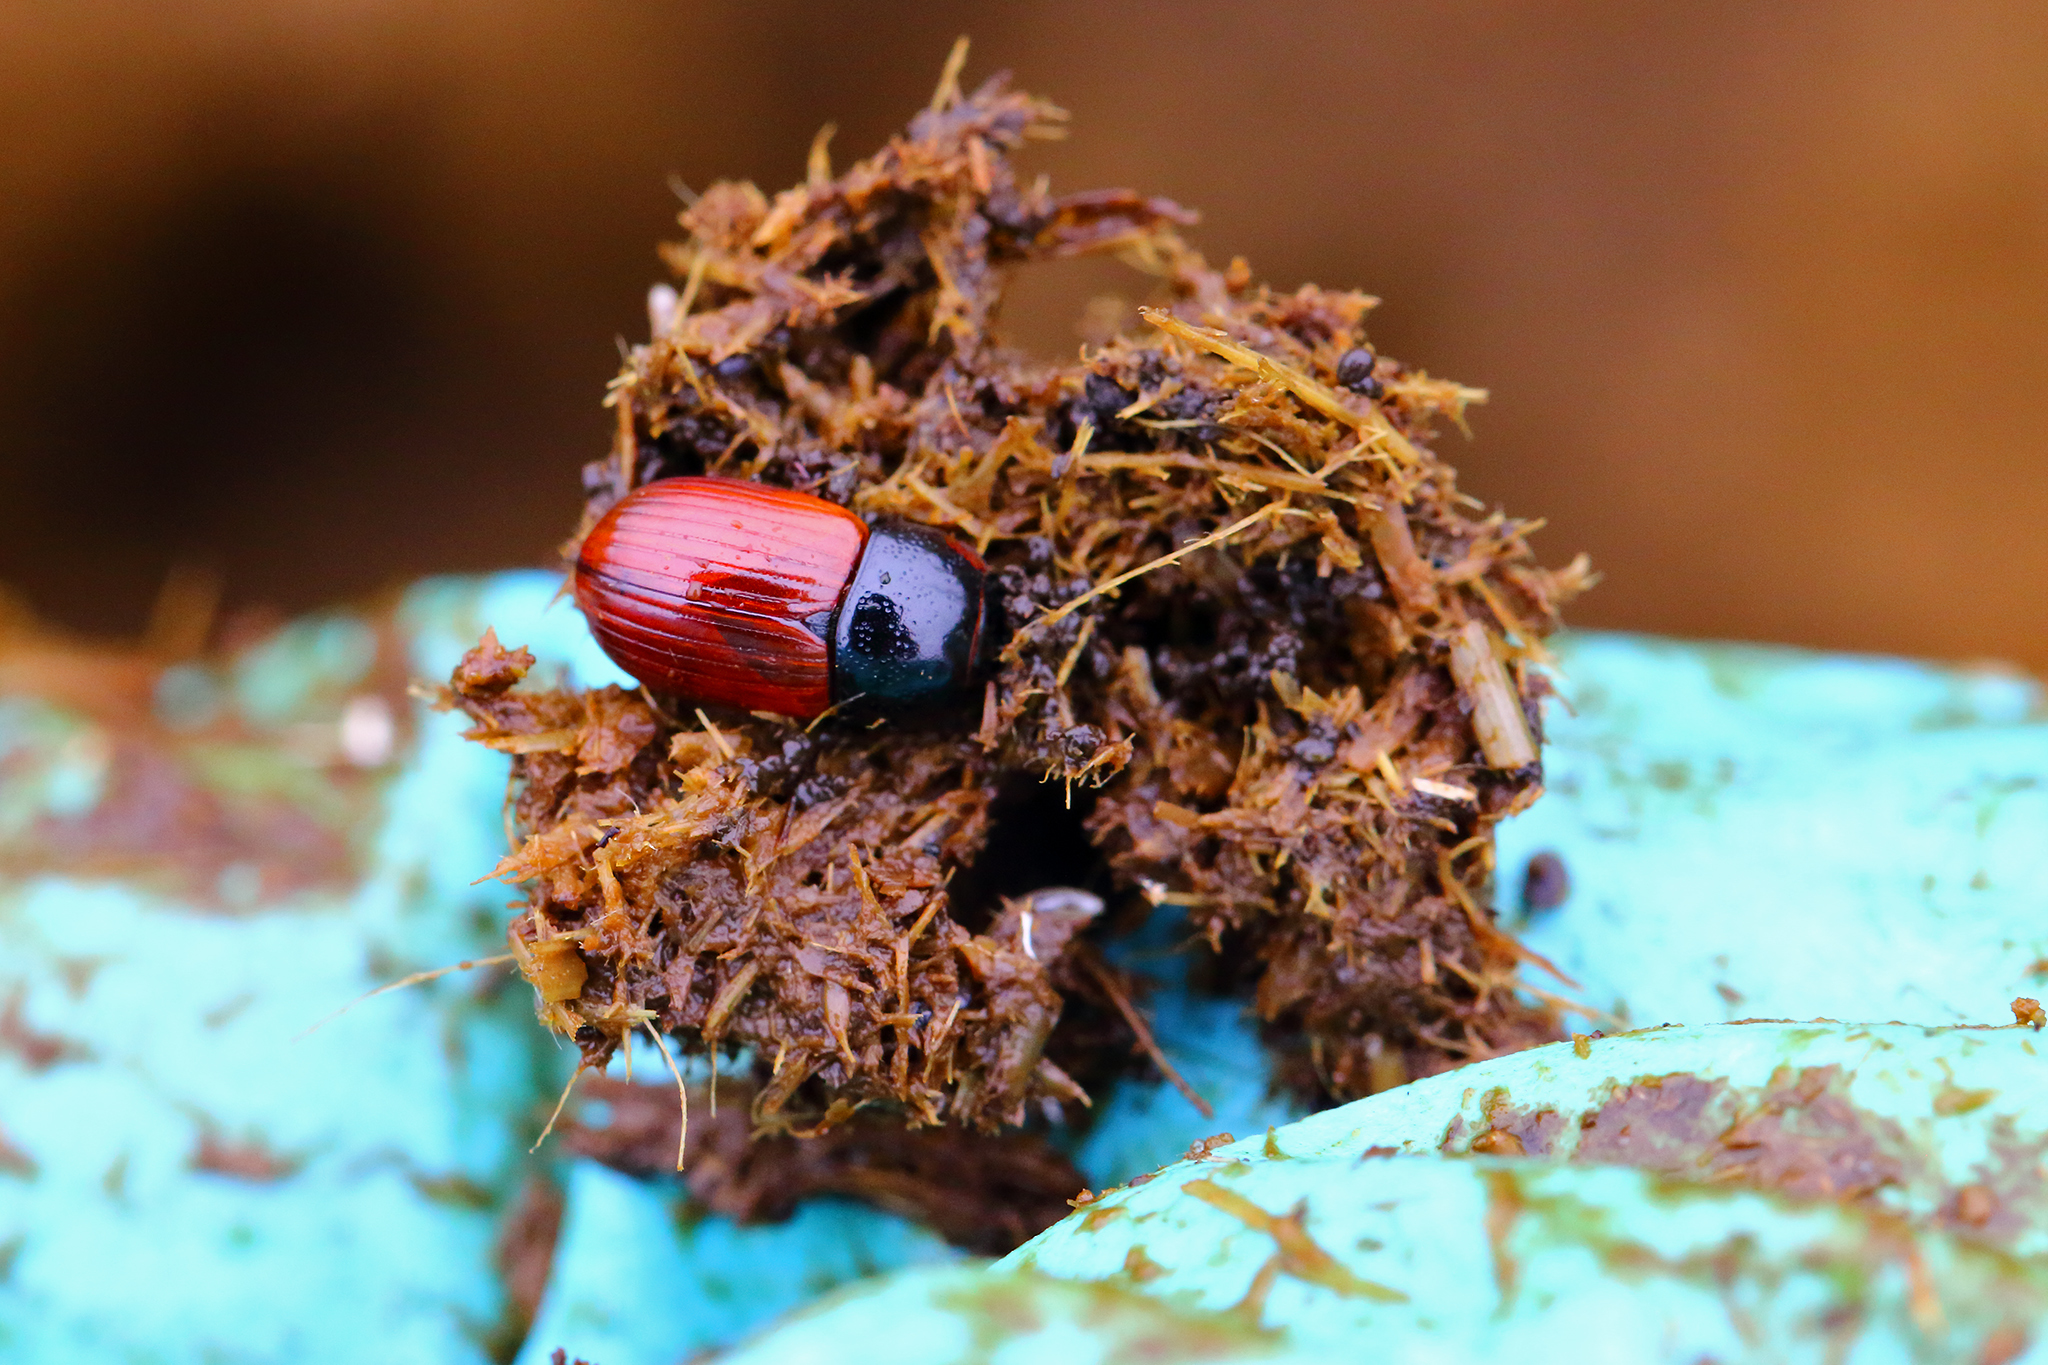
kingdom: Animalia
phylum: Arthropoda
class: Insecta
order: Coleoptera
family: Scarabaeidae
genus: Aphodius
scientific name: Aphodius fimetarius
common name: Common dung beetle
